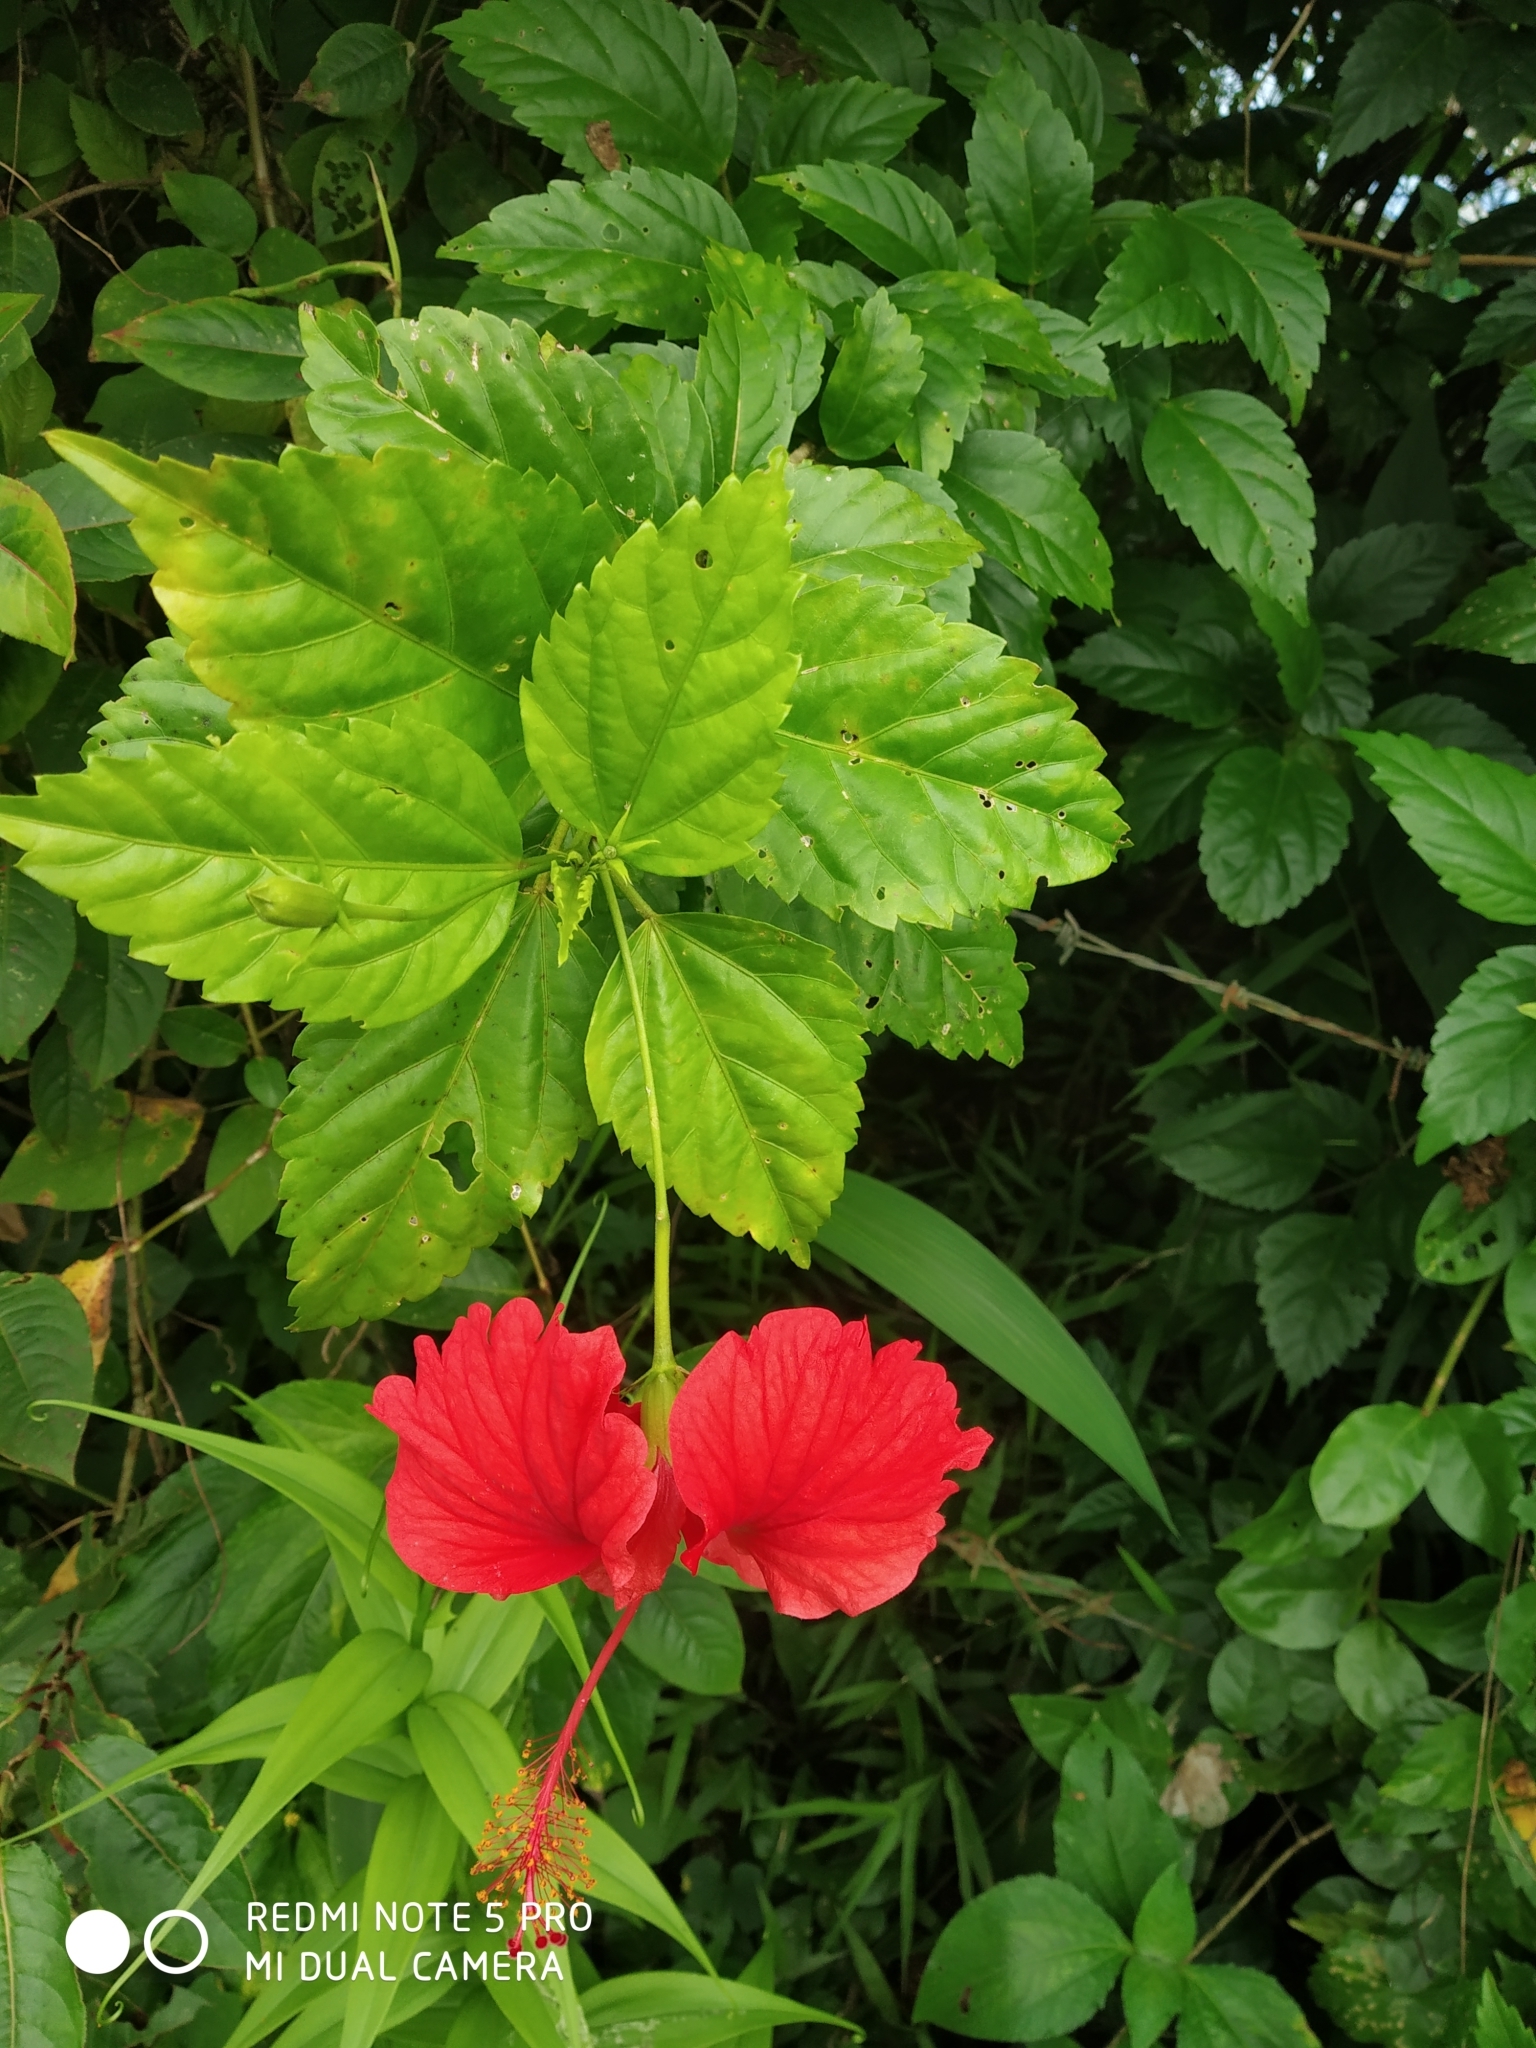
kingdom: Plantae
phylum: Tracheophyta
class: Magnoliopsida
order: Malvales
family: Malvaceae
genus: Hibiscus
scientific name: Hibiscus archeri
